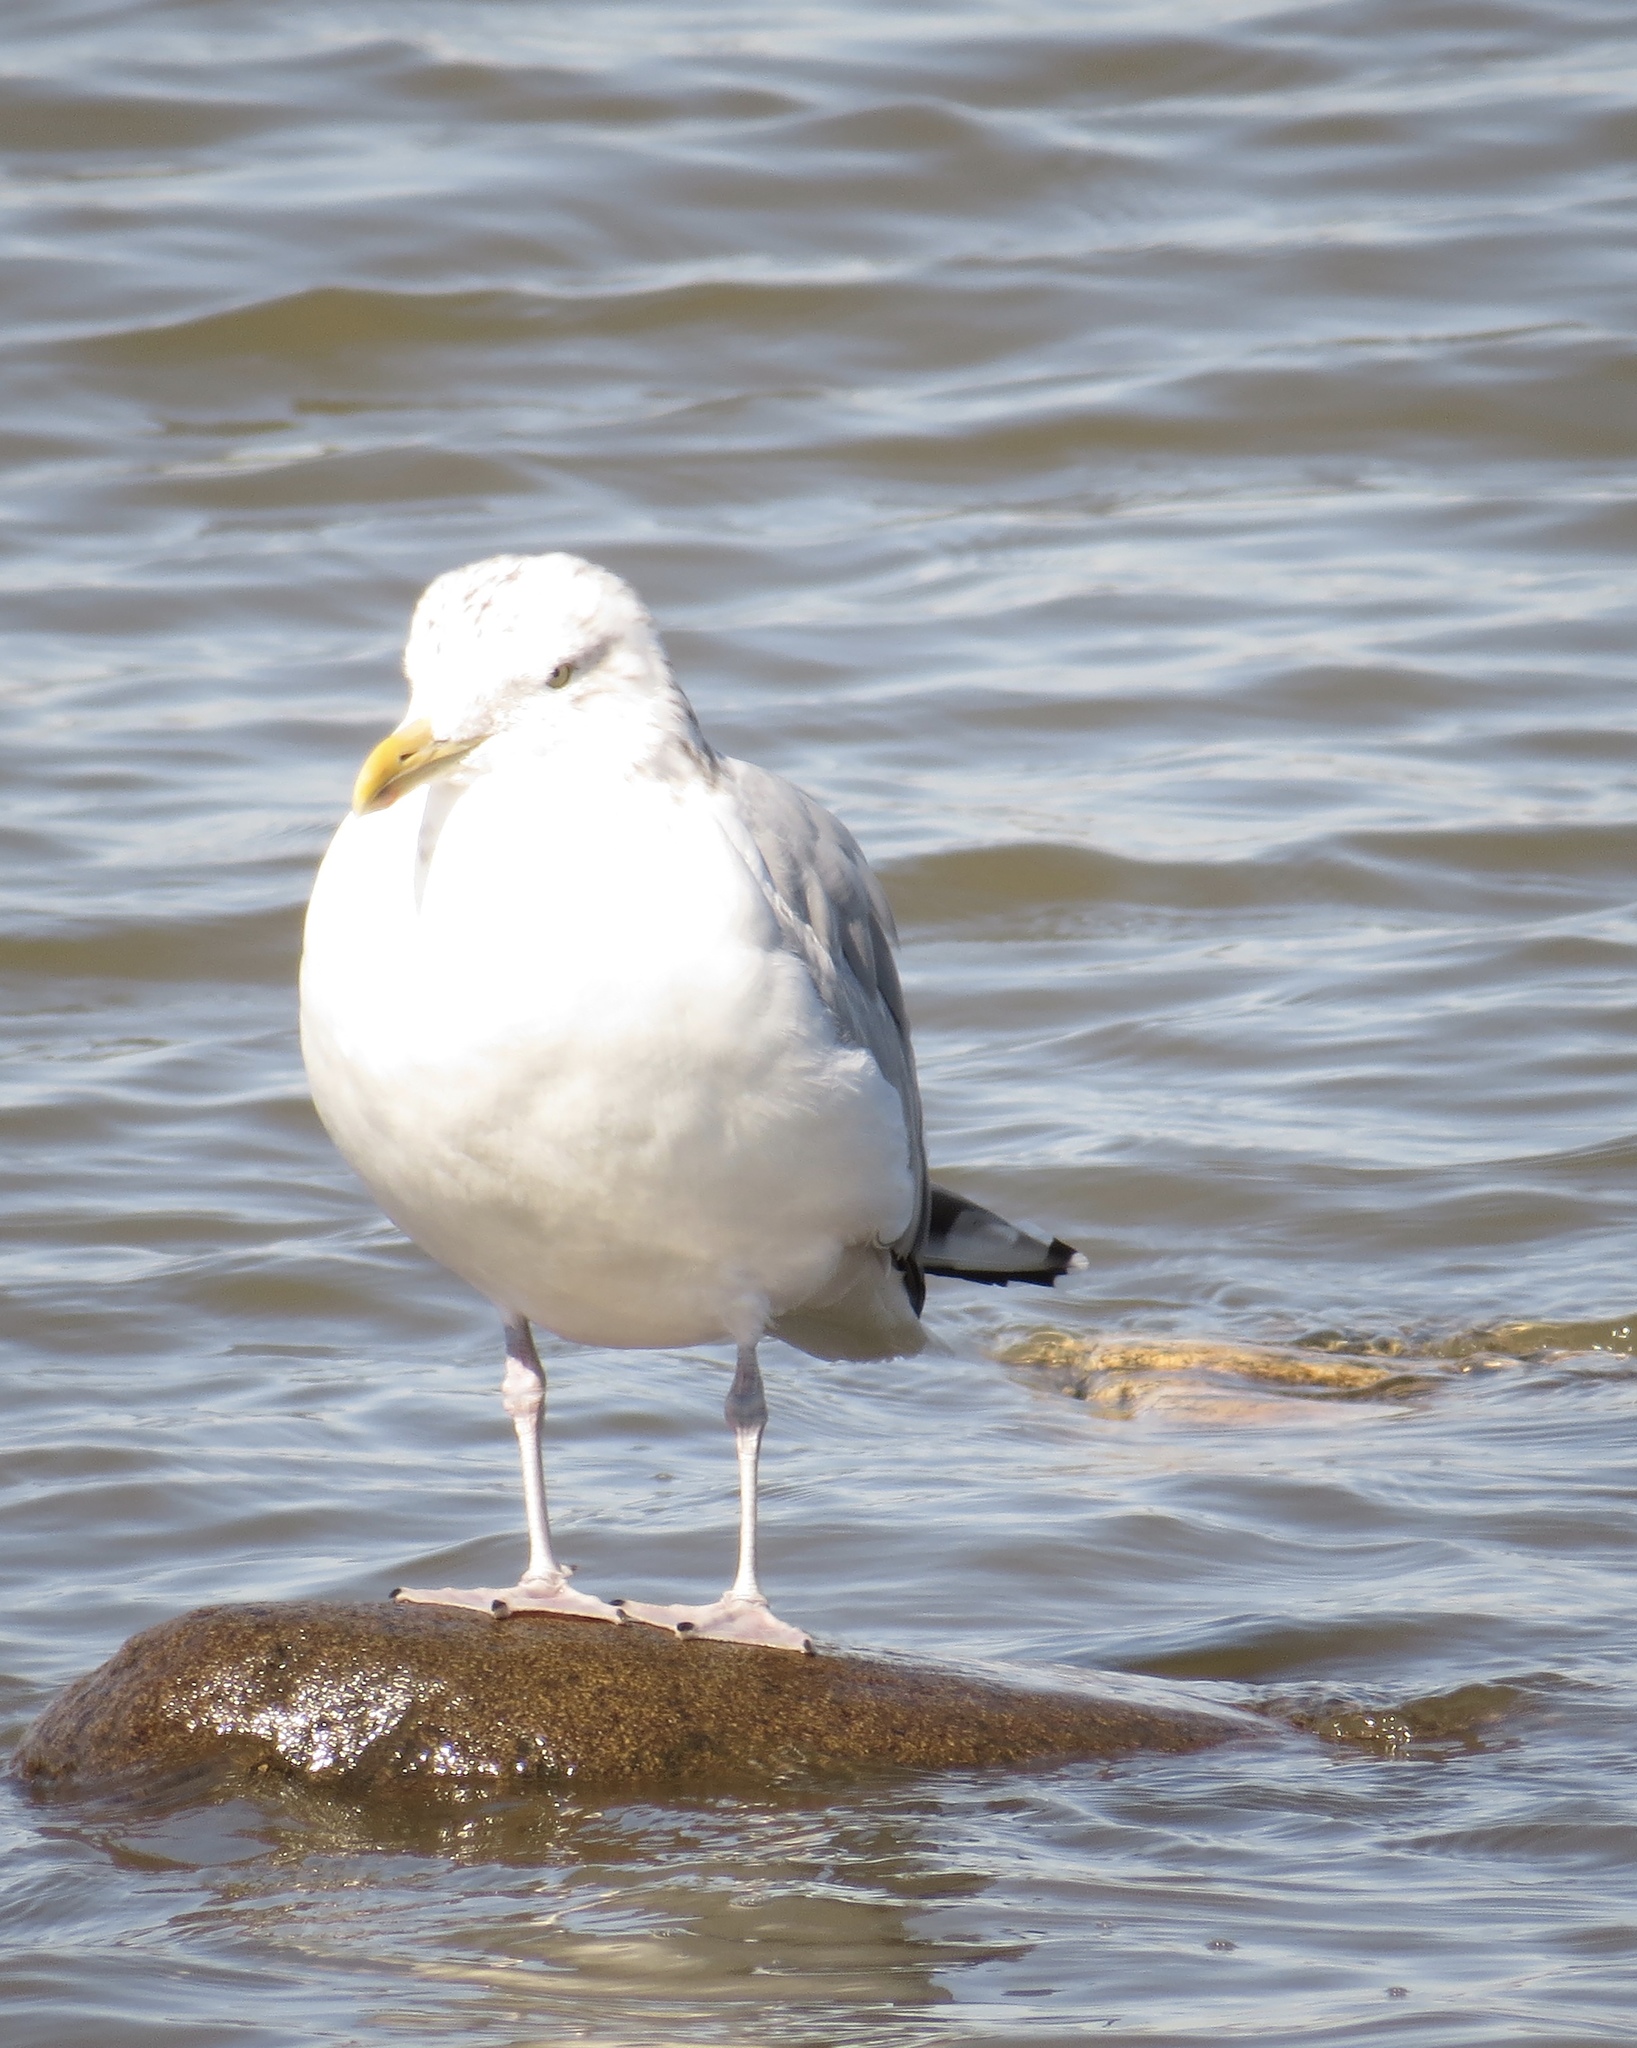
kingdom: Animalia
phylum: Chordata
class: Aves
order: Charadriiformes
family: Laridae
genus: Larus
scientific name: Larus argentatus
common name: Herring gull
